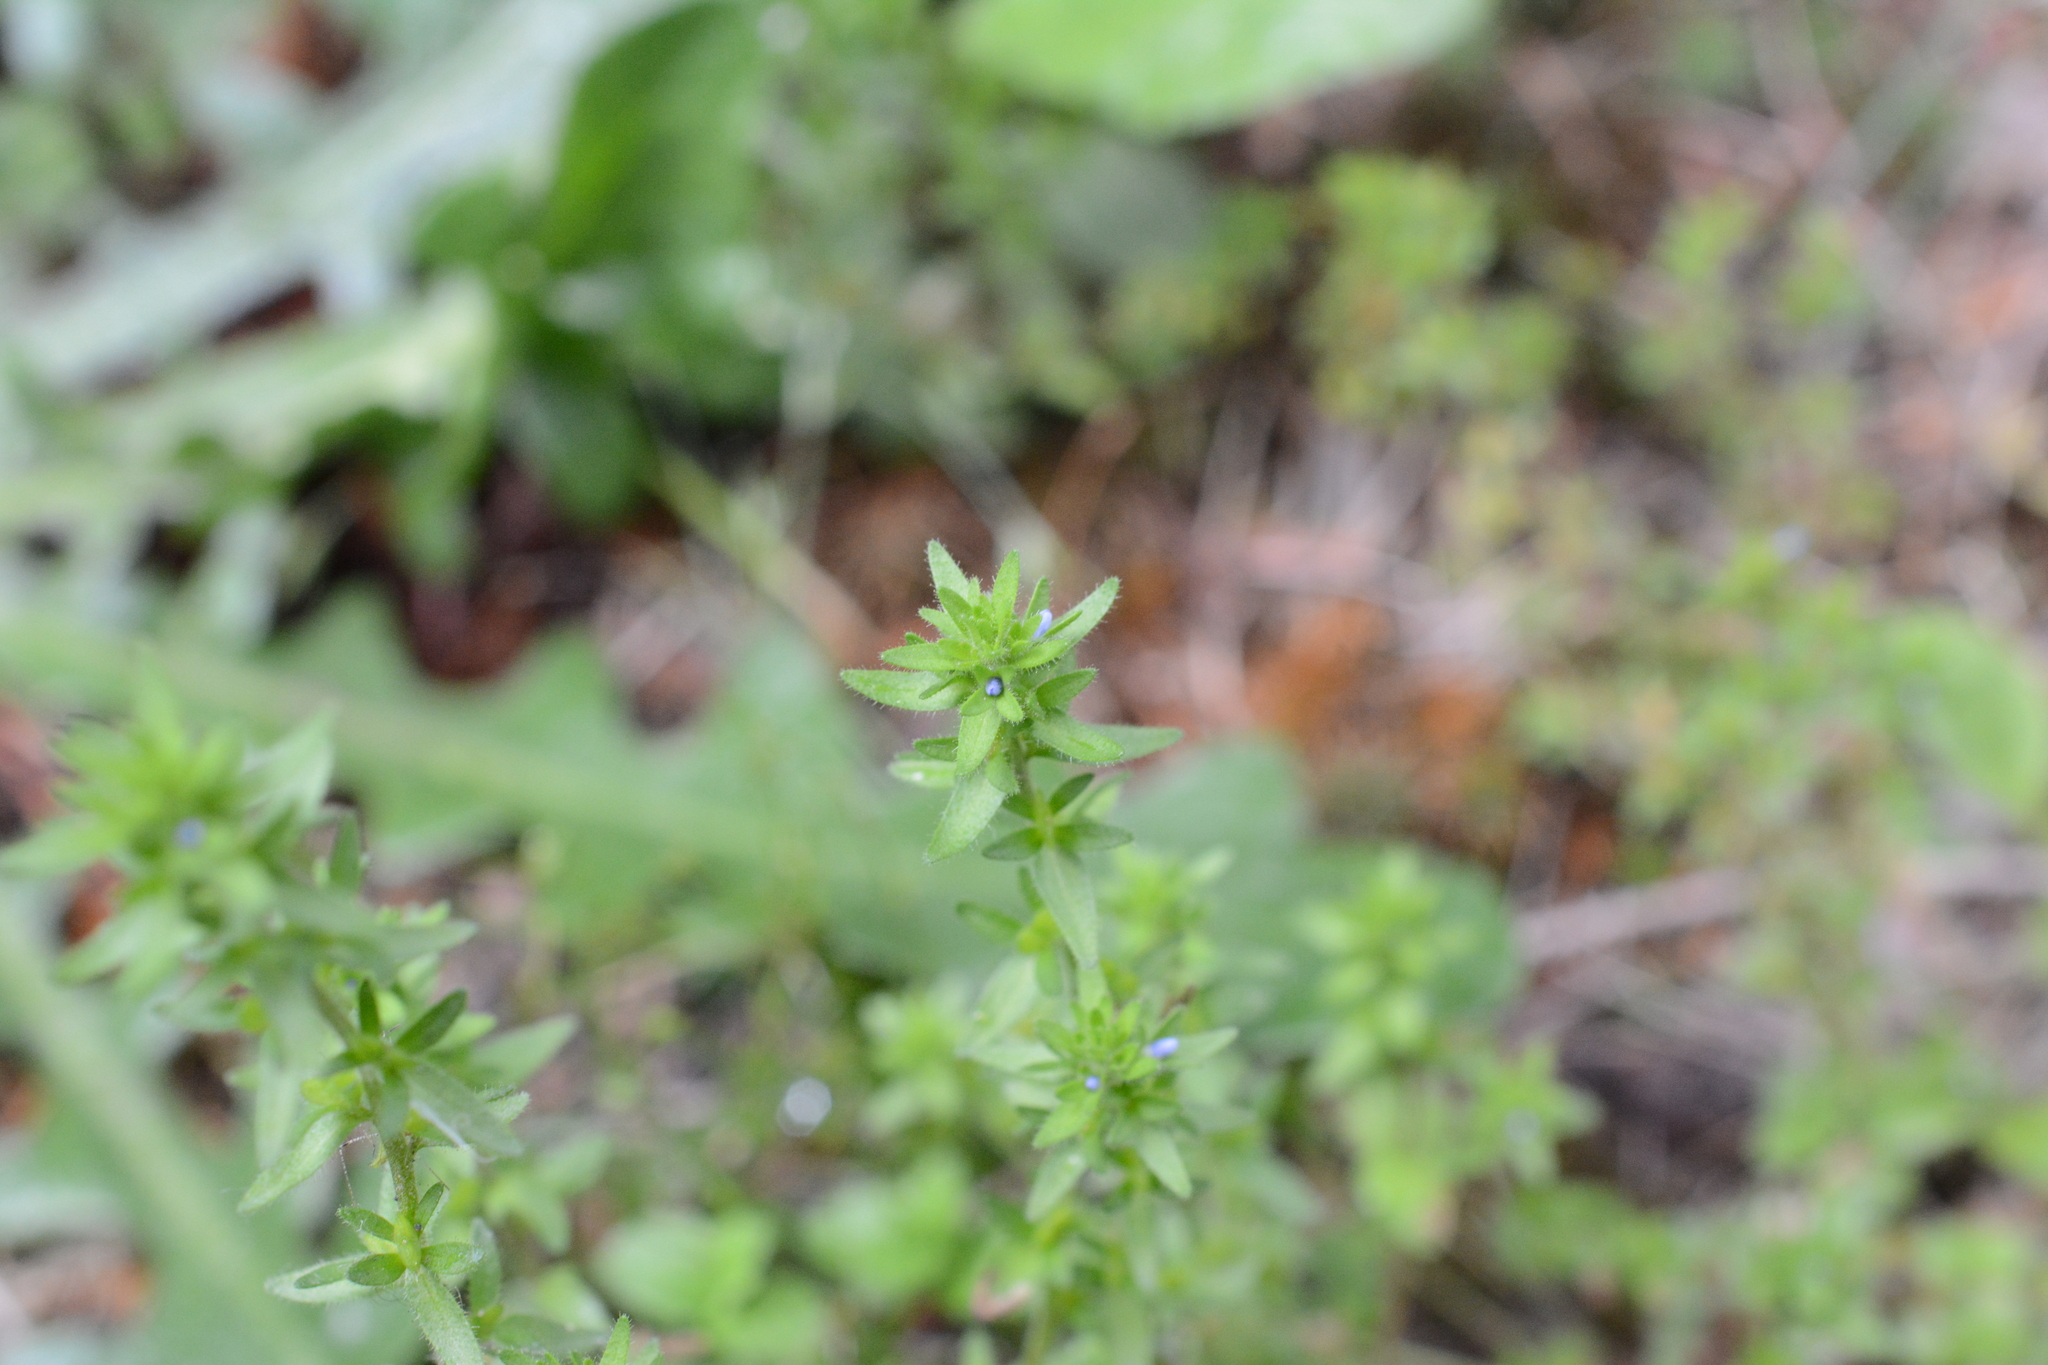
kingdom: Plantae
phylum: Tracheophyta
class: Magnoliopsida
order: Lamiales
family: Plantaginaceae
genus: Veronica
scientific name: Veronica arvensis
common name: Corn speedwell
